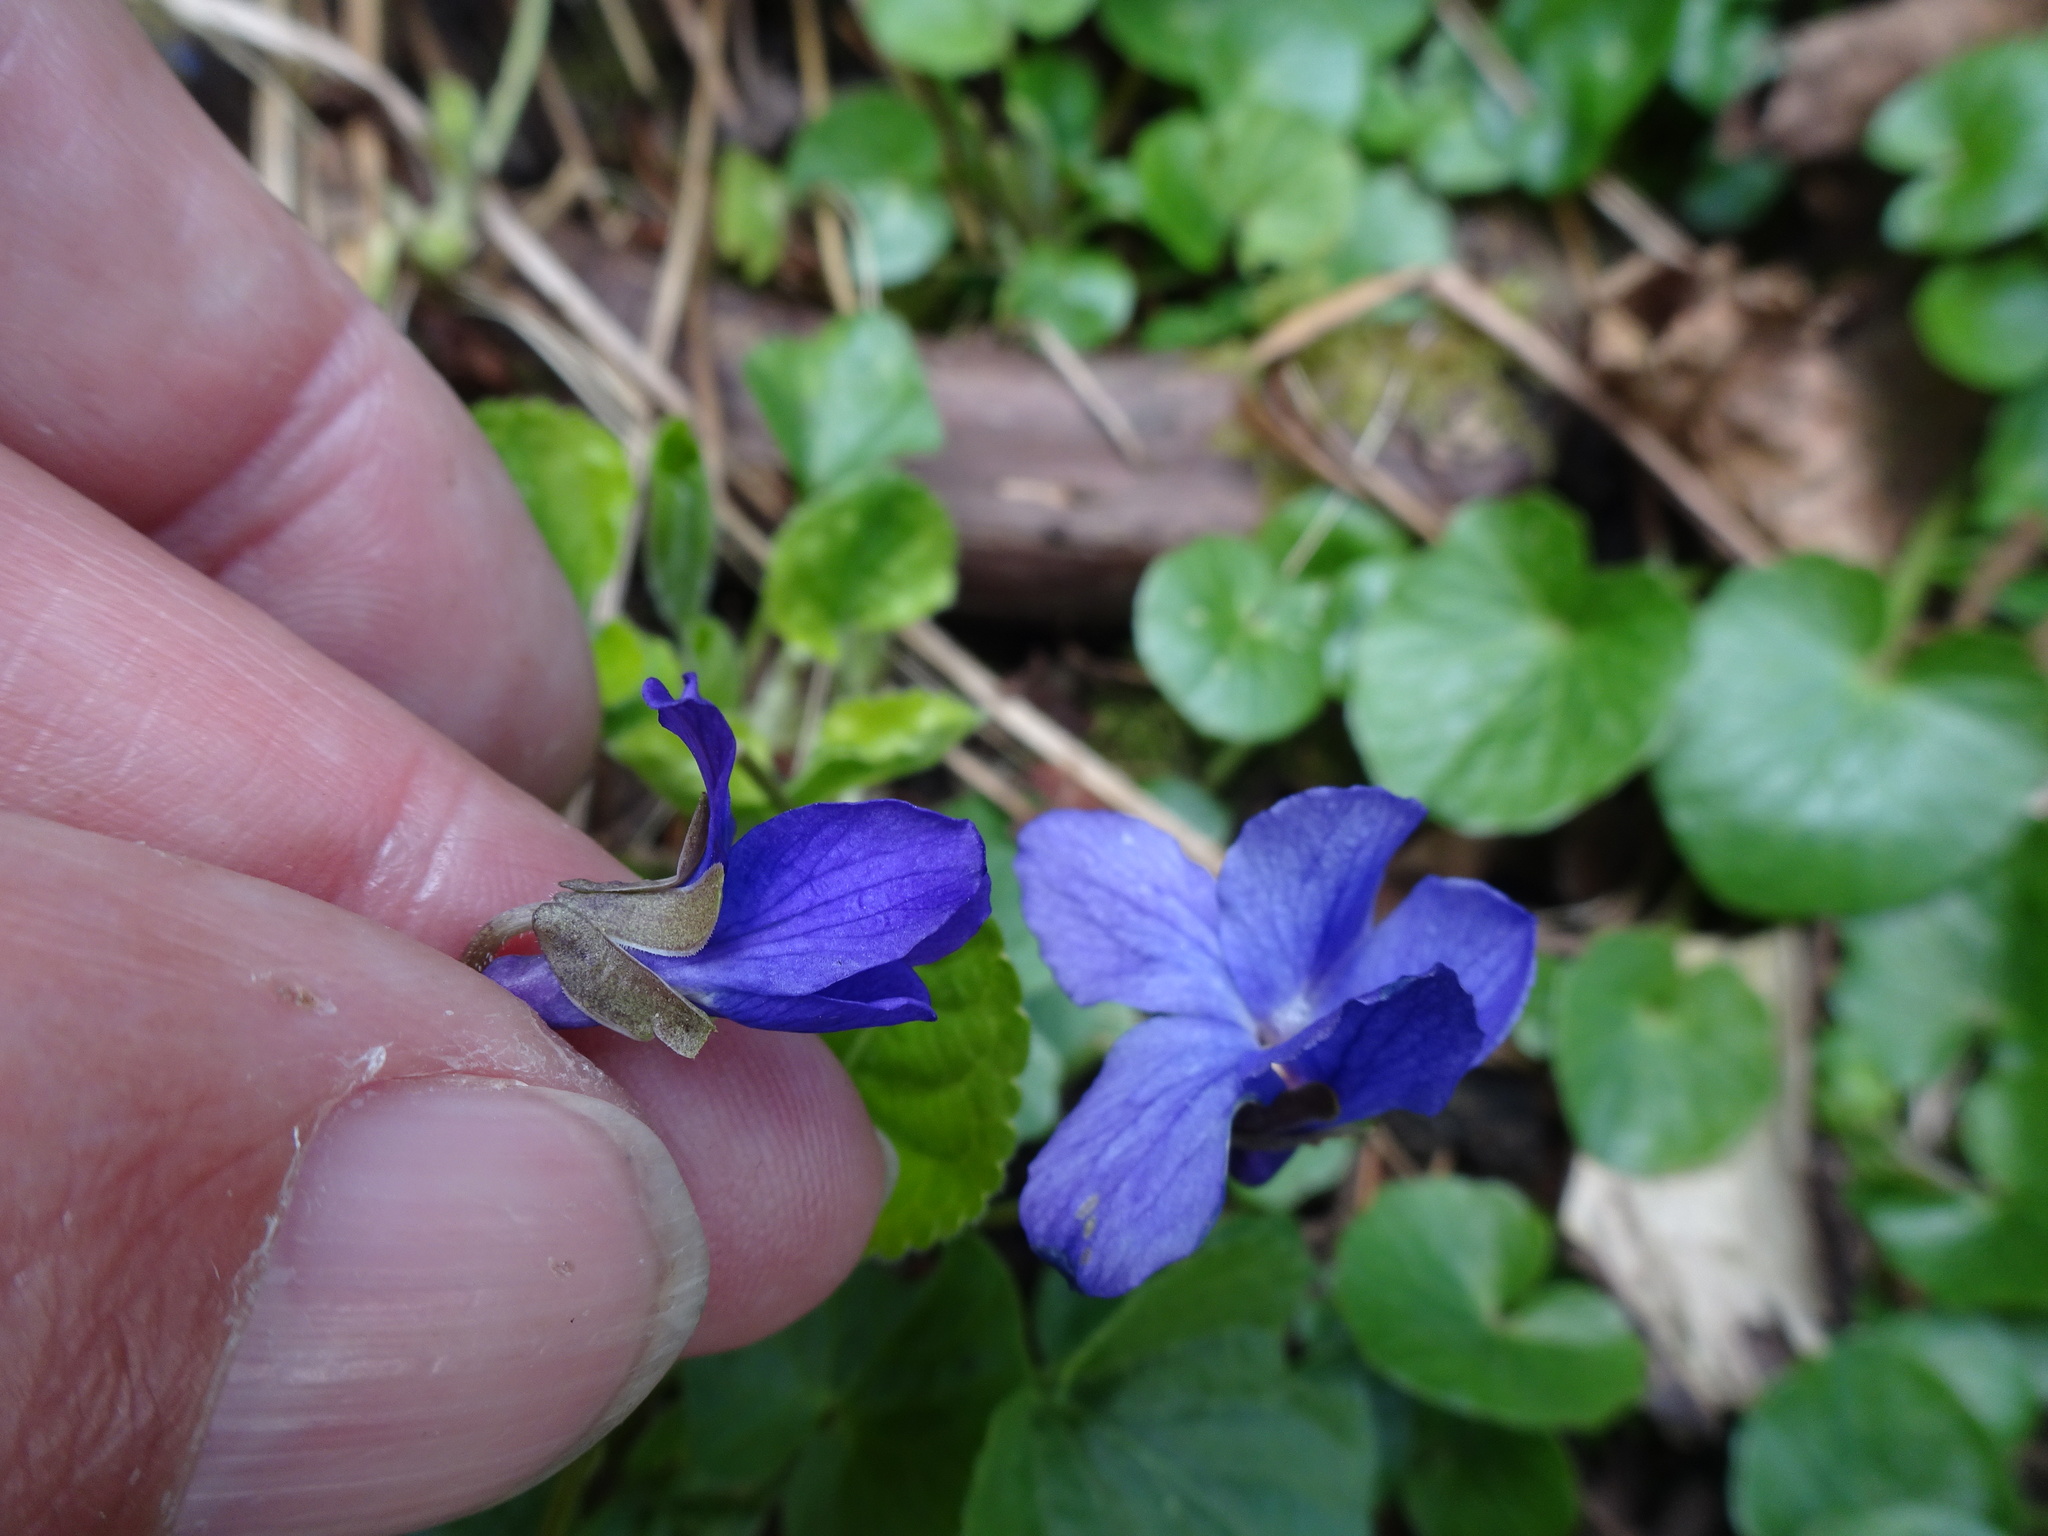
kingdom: Plantae
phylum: Tracheophyta
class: Magnoliopsida
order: Malpighiales
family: Violaceae
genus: Viola
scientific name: Viola odorata
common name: Sweet violet
